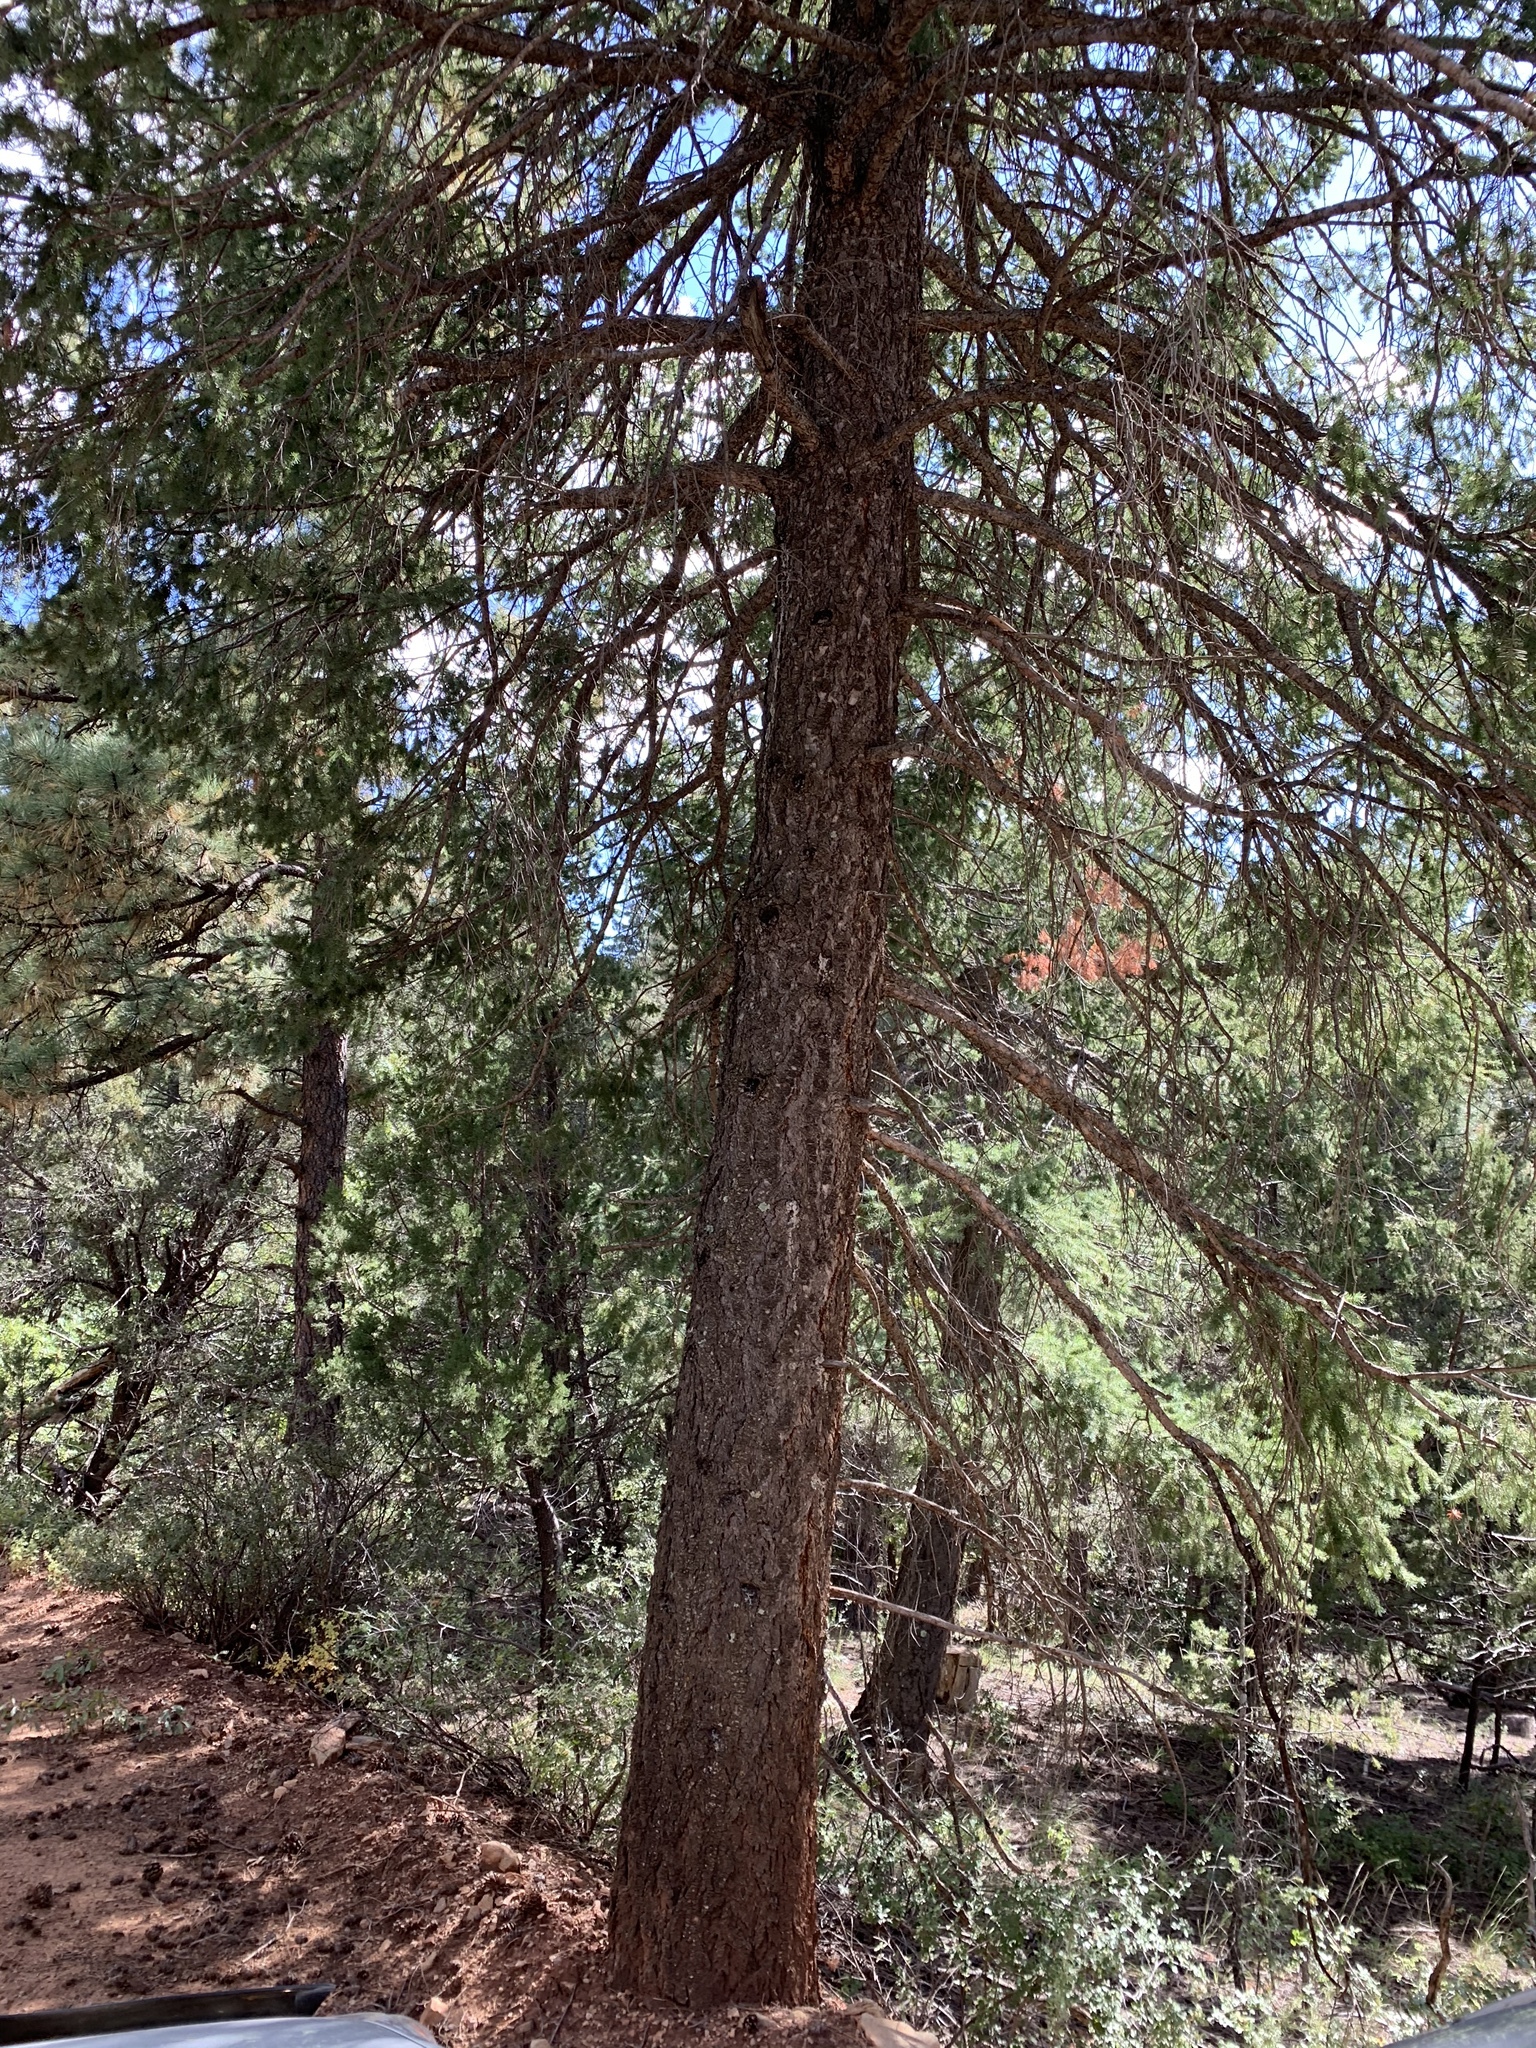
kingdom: Plantae
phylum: Tracheophyta
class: Pinopsida
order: Pinales
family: Pinaceae
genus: Pseudotsuga
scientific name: Pseudotsuga menziesii
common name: Douglas fir
